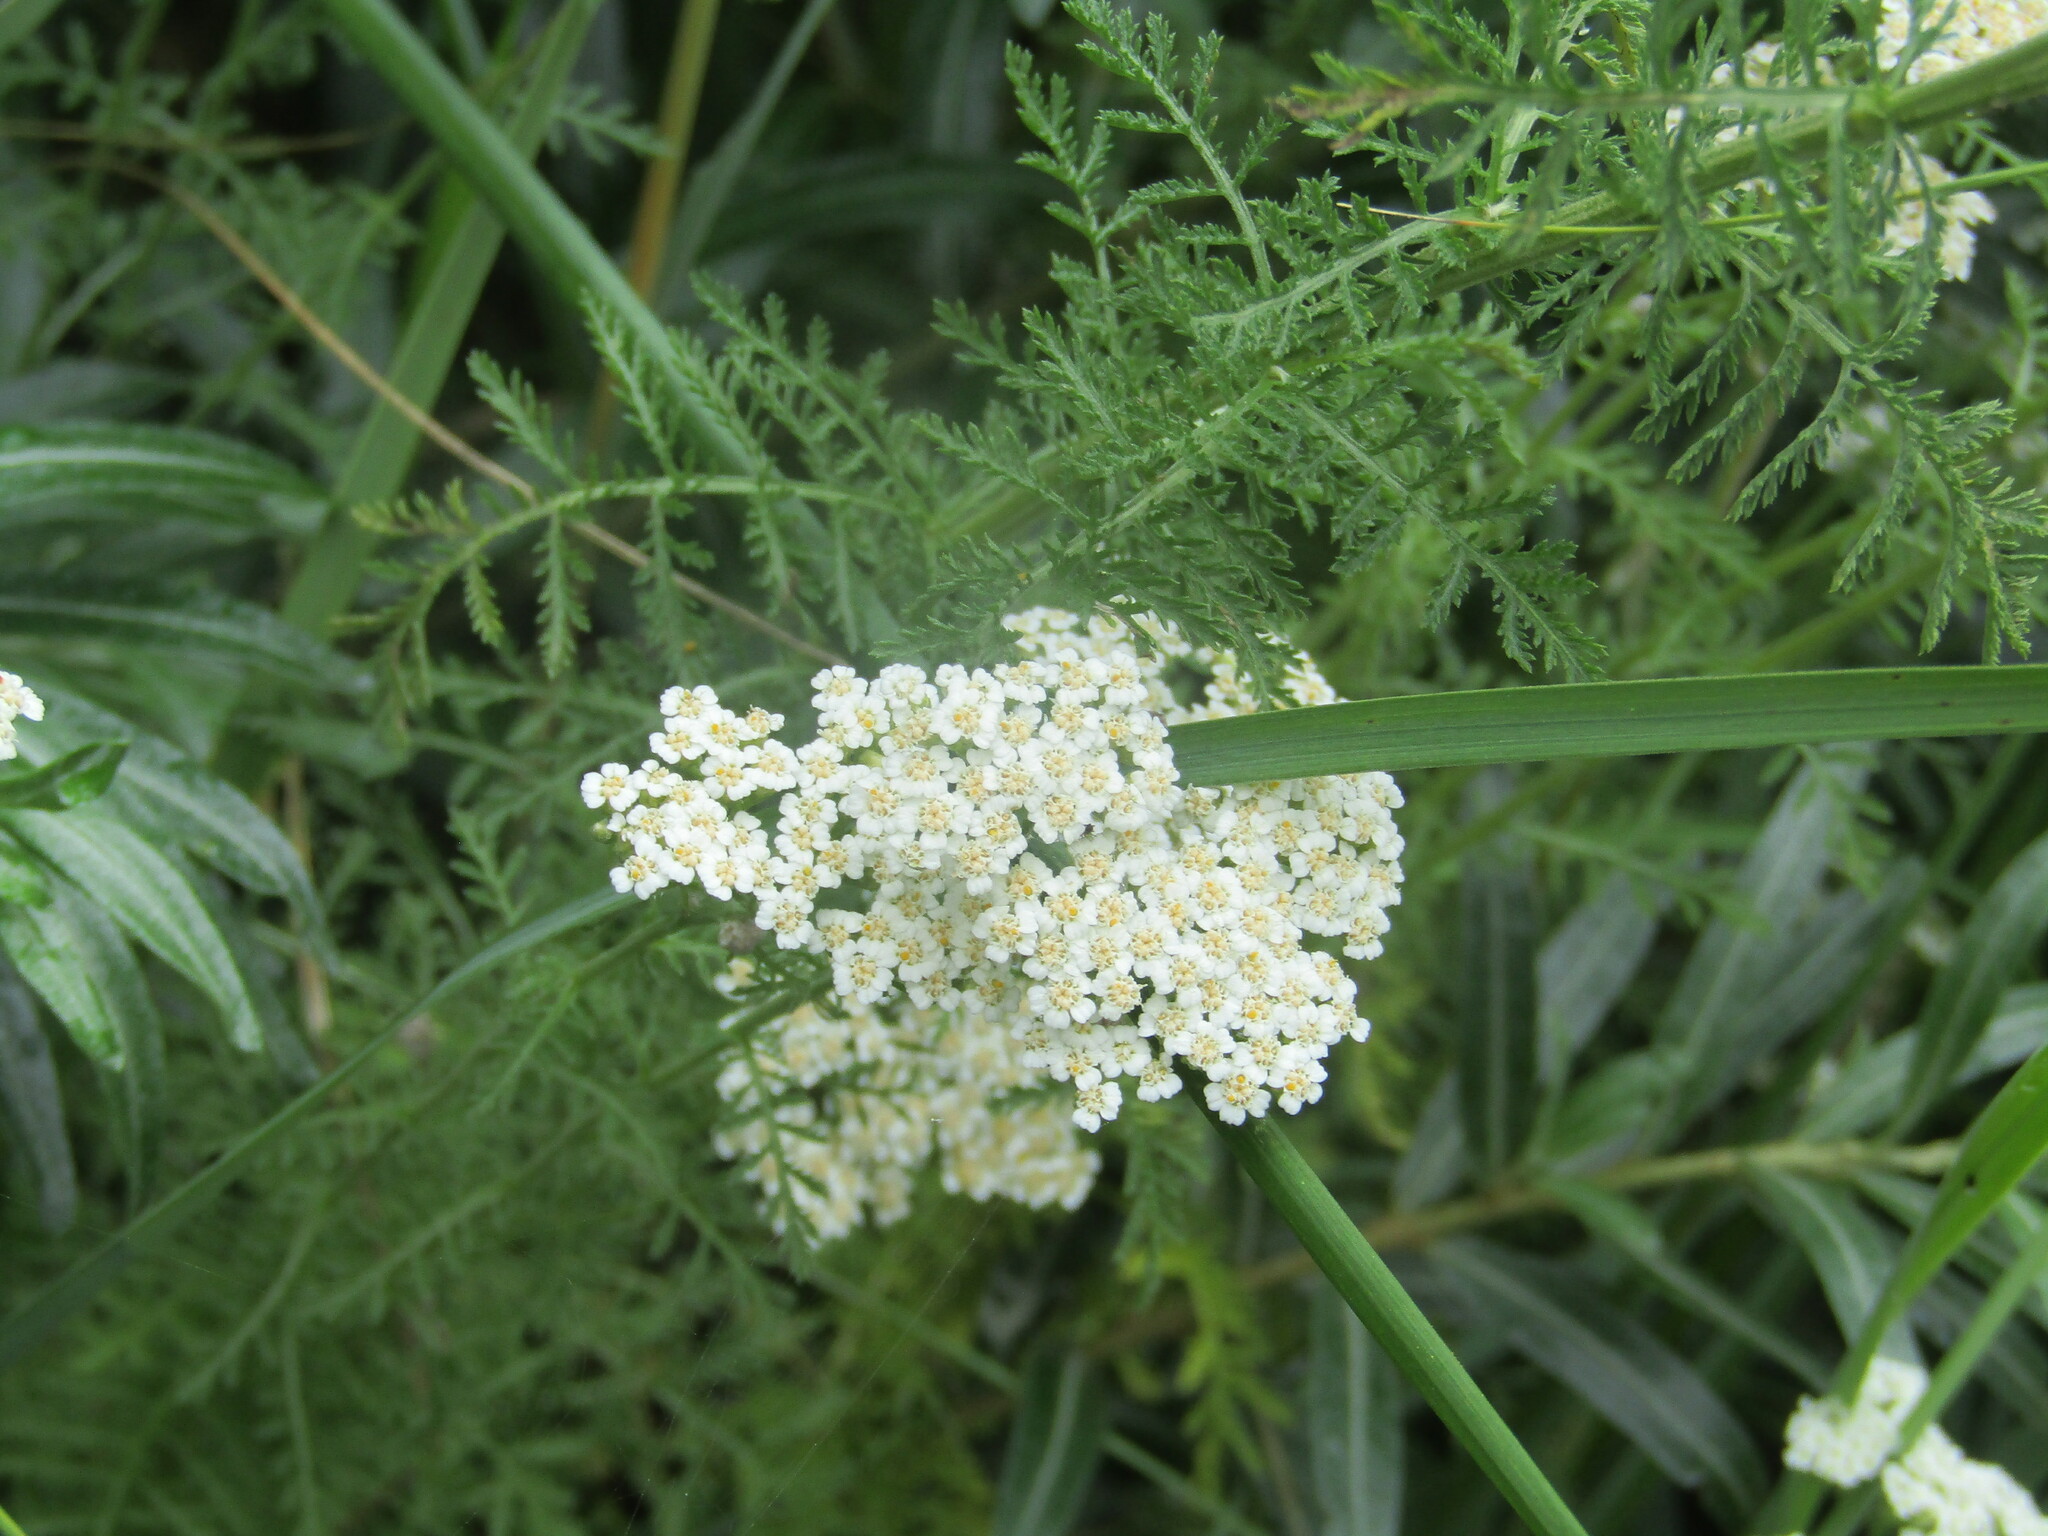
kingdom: Plantae
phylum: Tracheophyta
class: Magnoliopsida
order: Asterales
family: Asteraceae
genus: Achillea
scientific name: Achillea nobilis
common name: Noble yarrow
